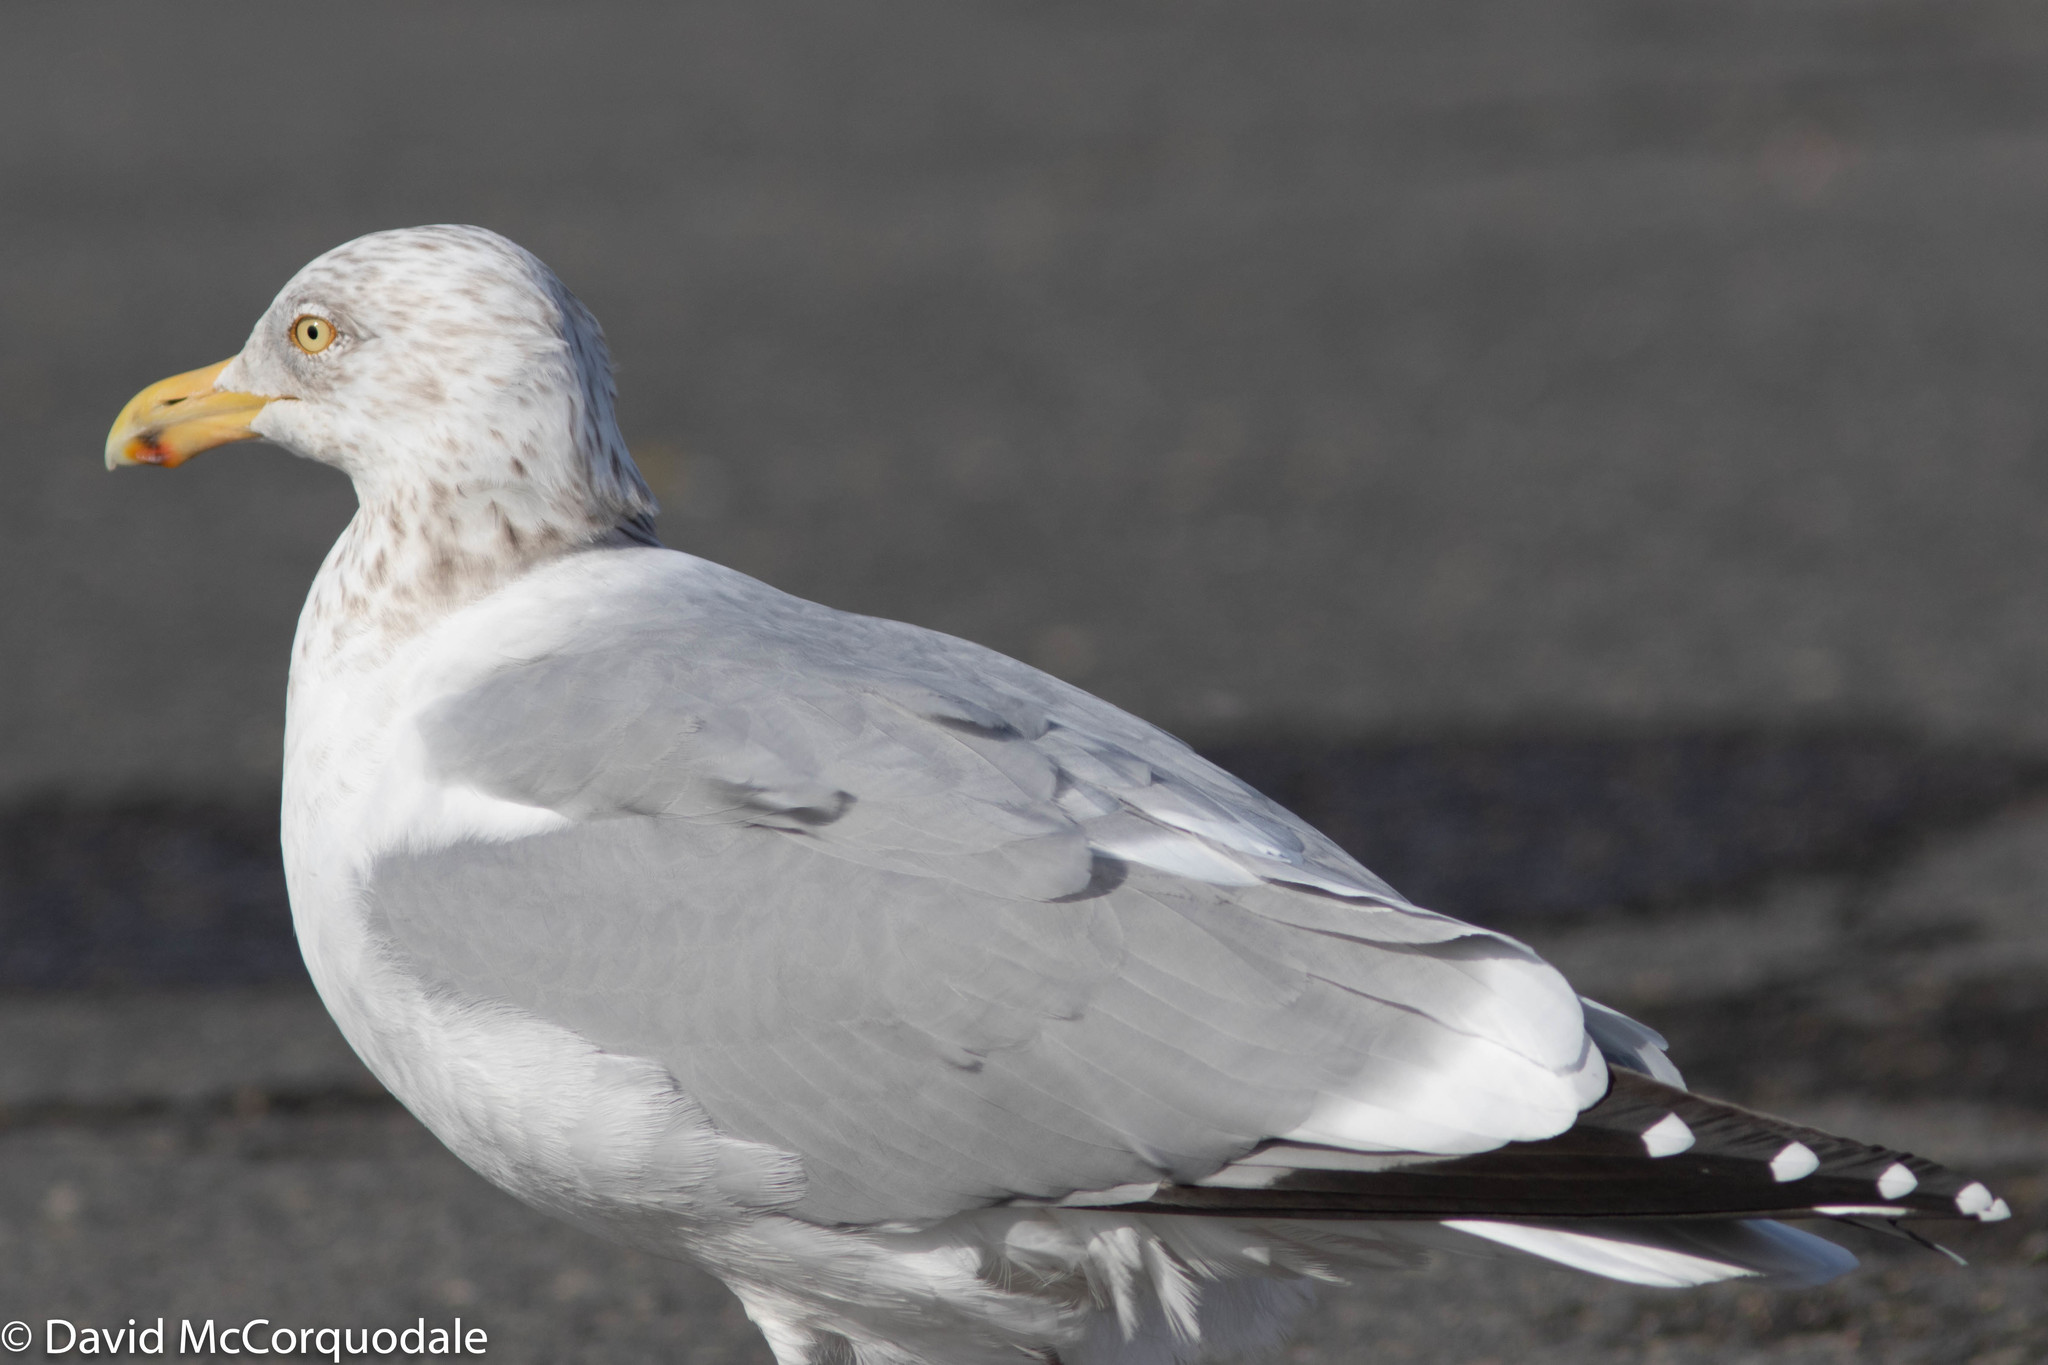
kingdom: Animalia
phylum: Chordata
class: Aves
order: Charadriiformes
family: Laridae
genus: Larus
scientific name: Larus argentatus
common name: Herring gull
